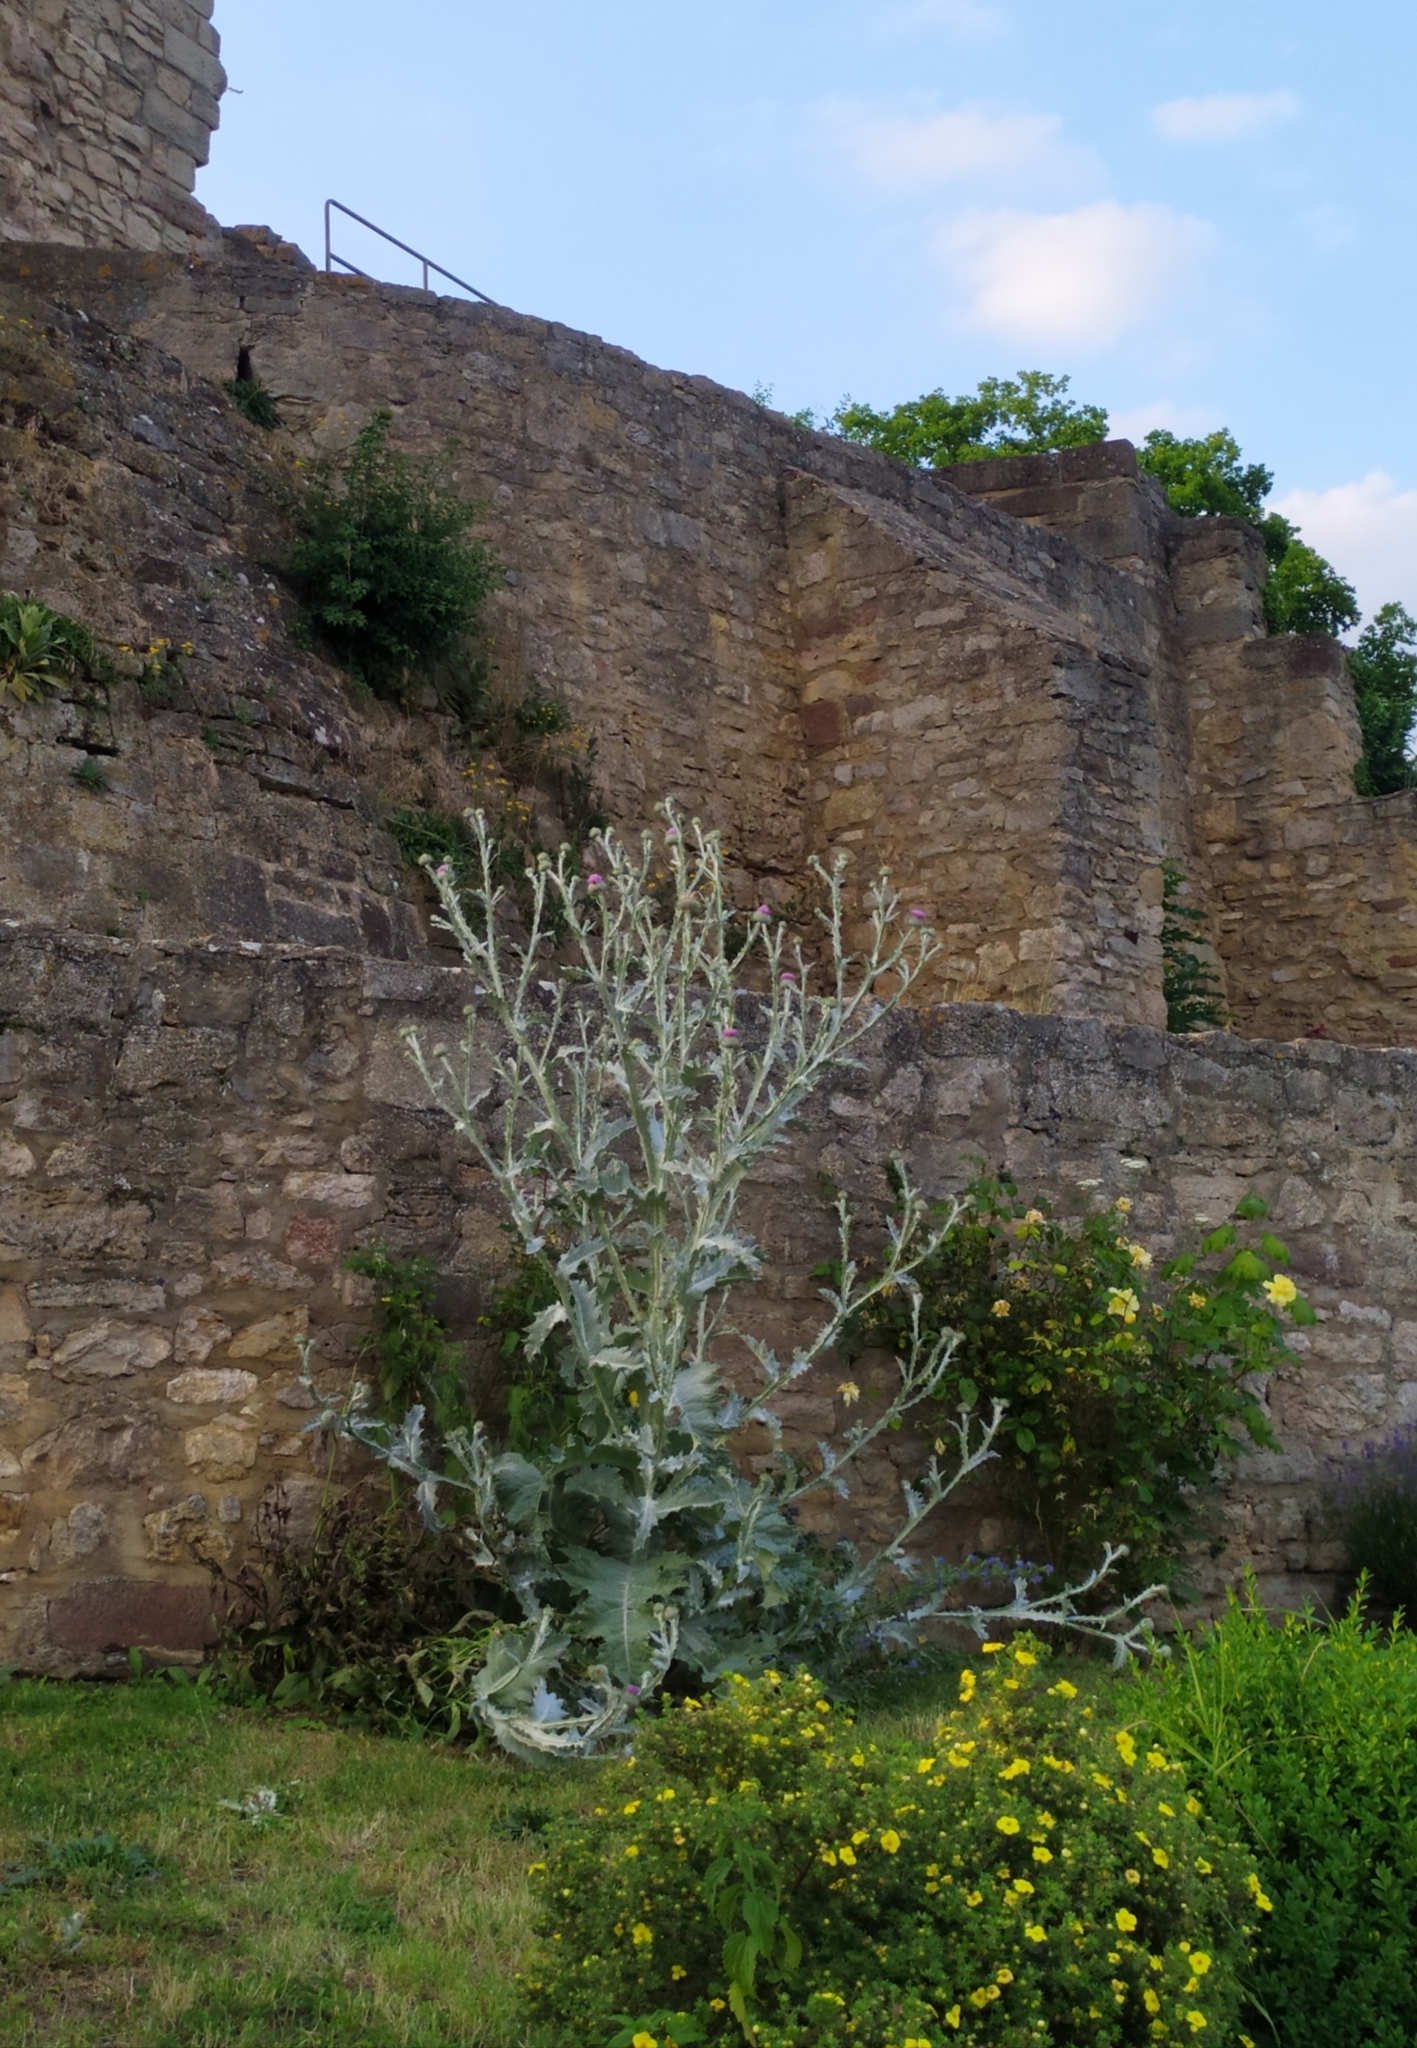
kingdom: Plantae
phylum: Tracheophyta
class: Magnoliopsida
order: Asterales
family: Asteraceae
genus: Onopordum
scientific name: Onopordum acanthium
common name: Scotch thistle
